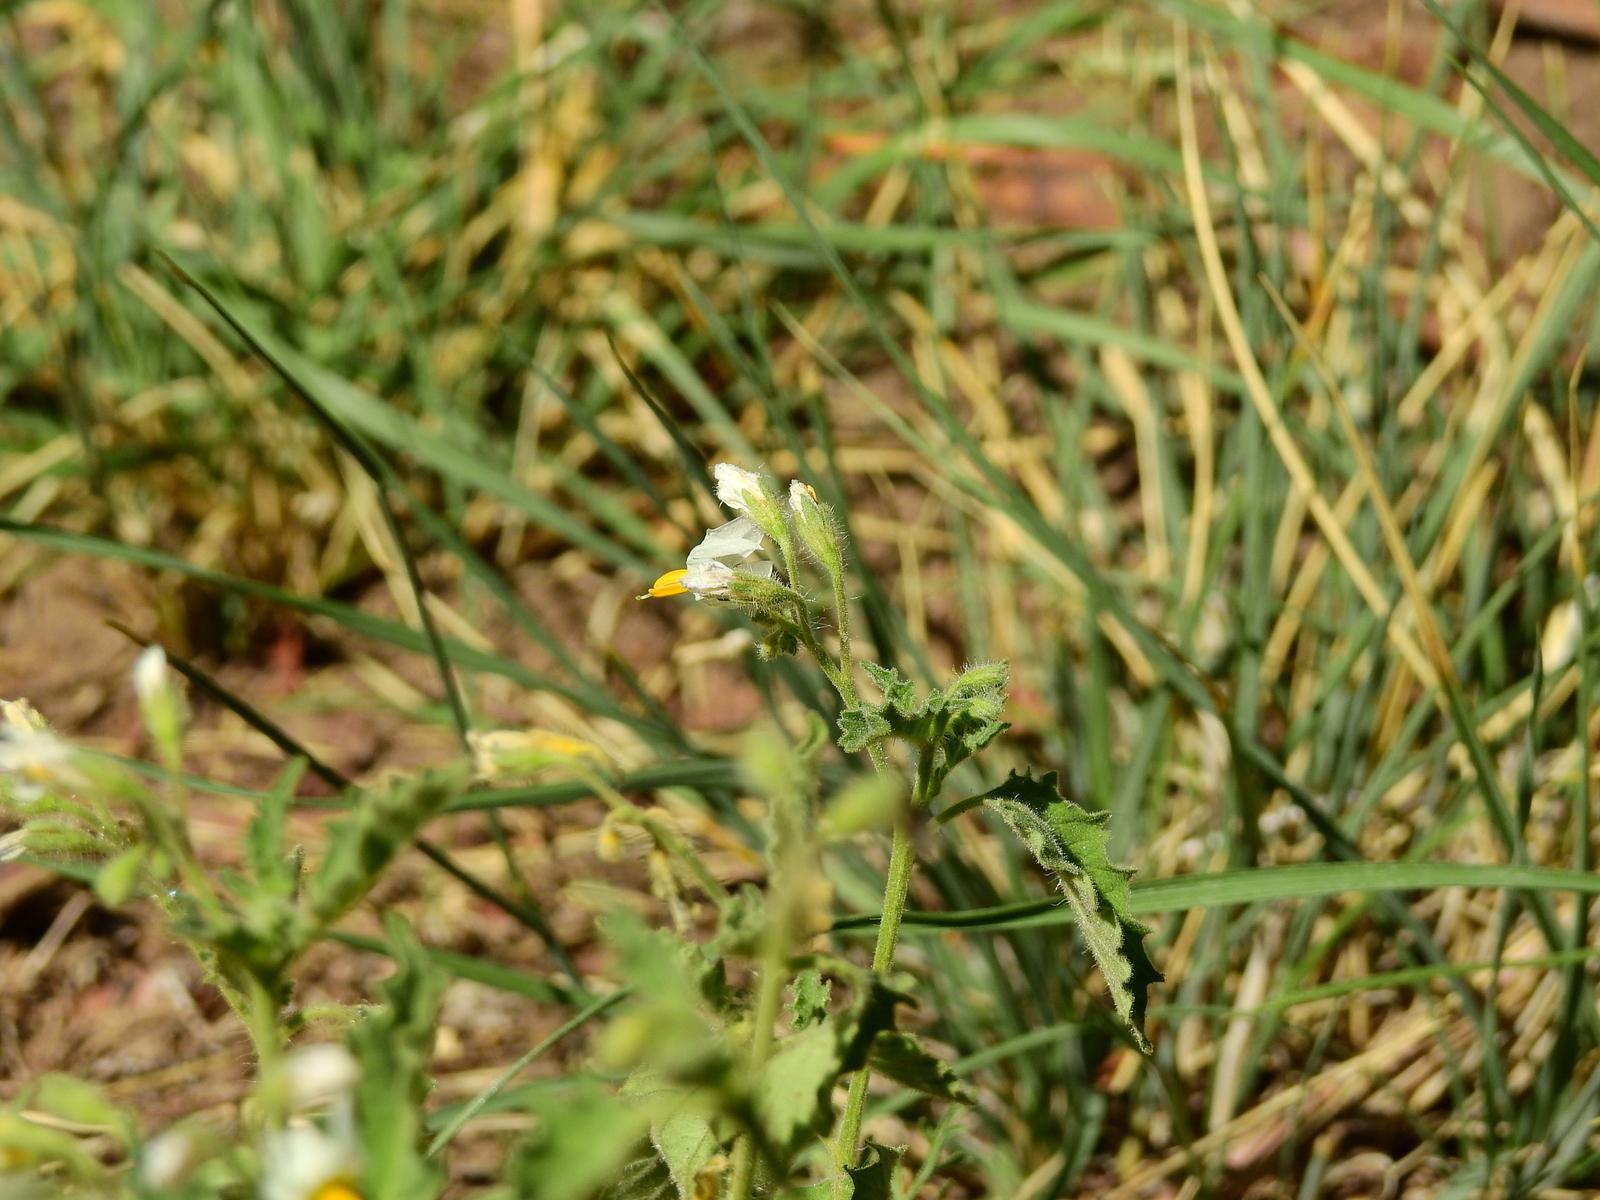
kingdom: Plantae
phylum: Tracheophyta
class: Magnoliopsida
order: Solanales
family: Solanaceae
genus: Solanum
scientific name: Solanum
